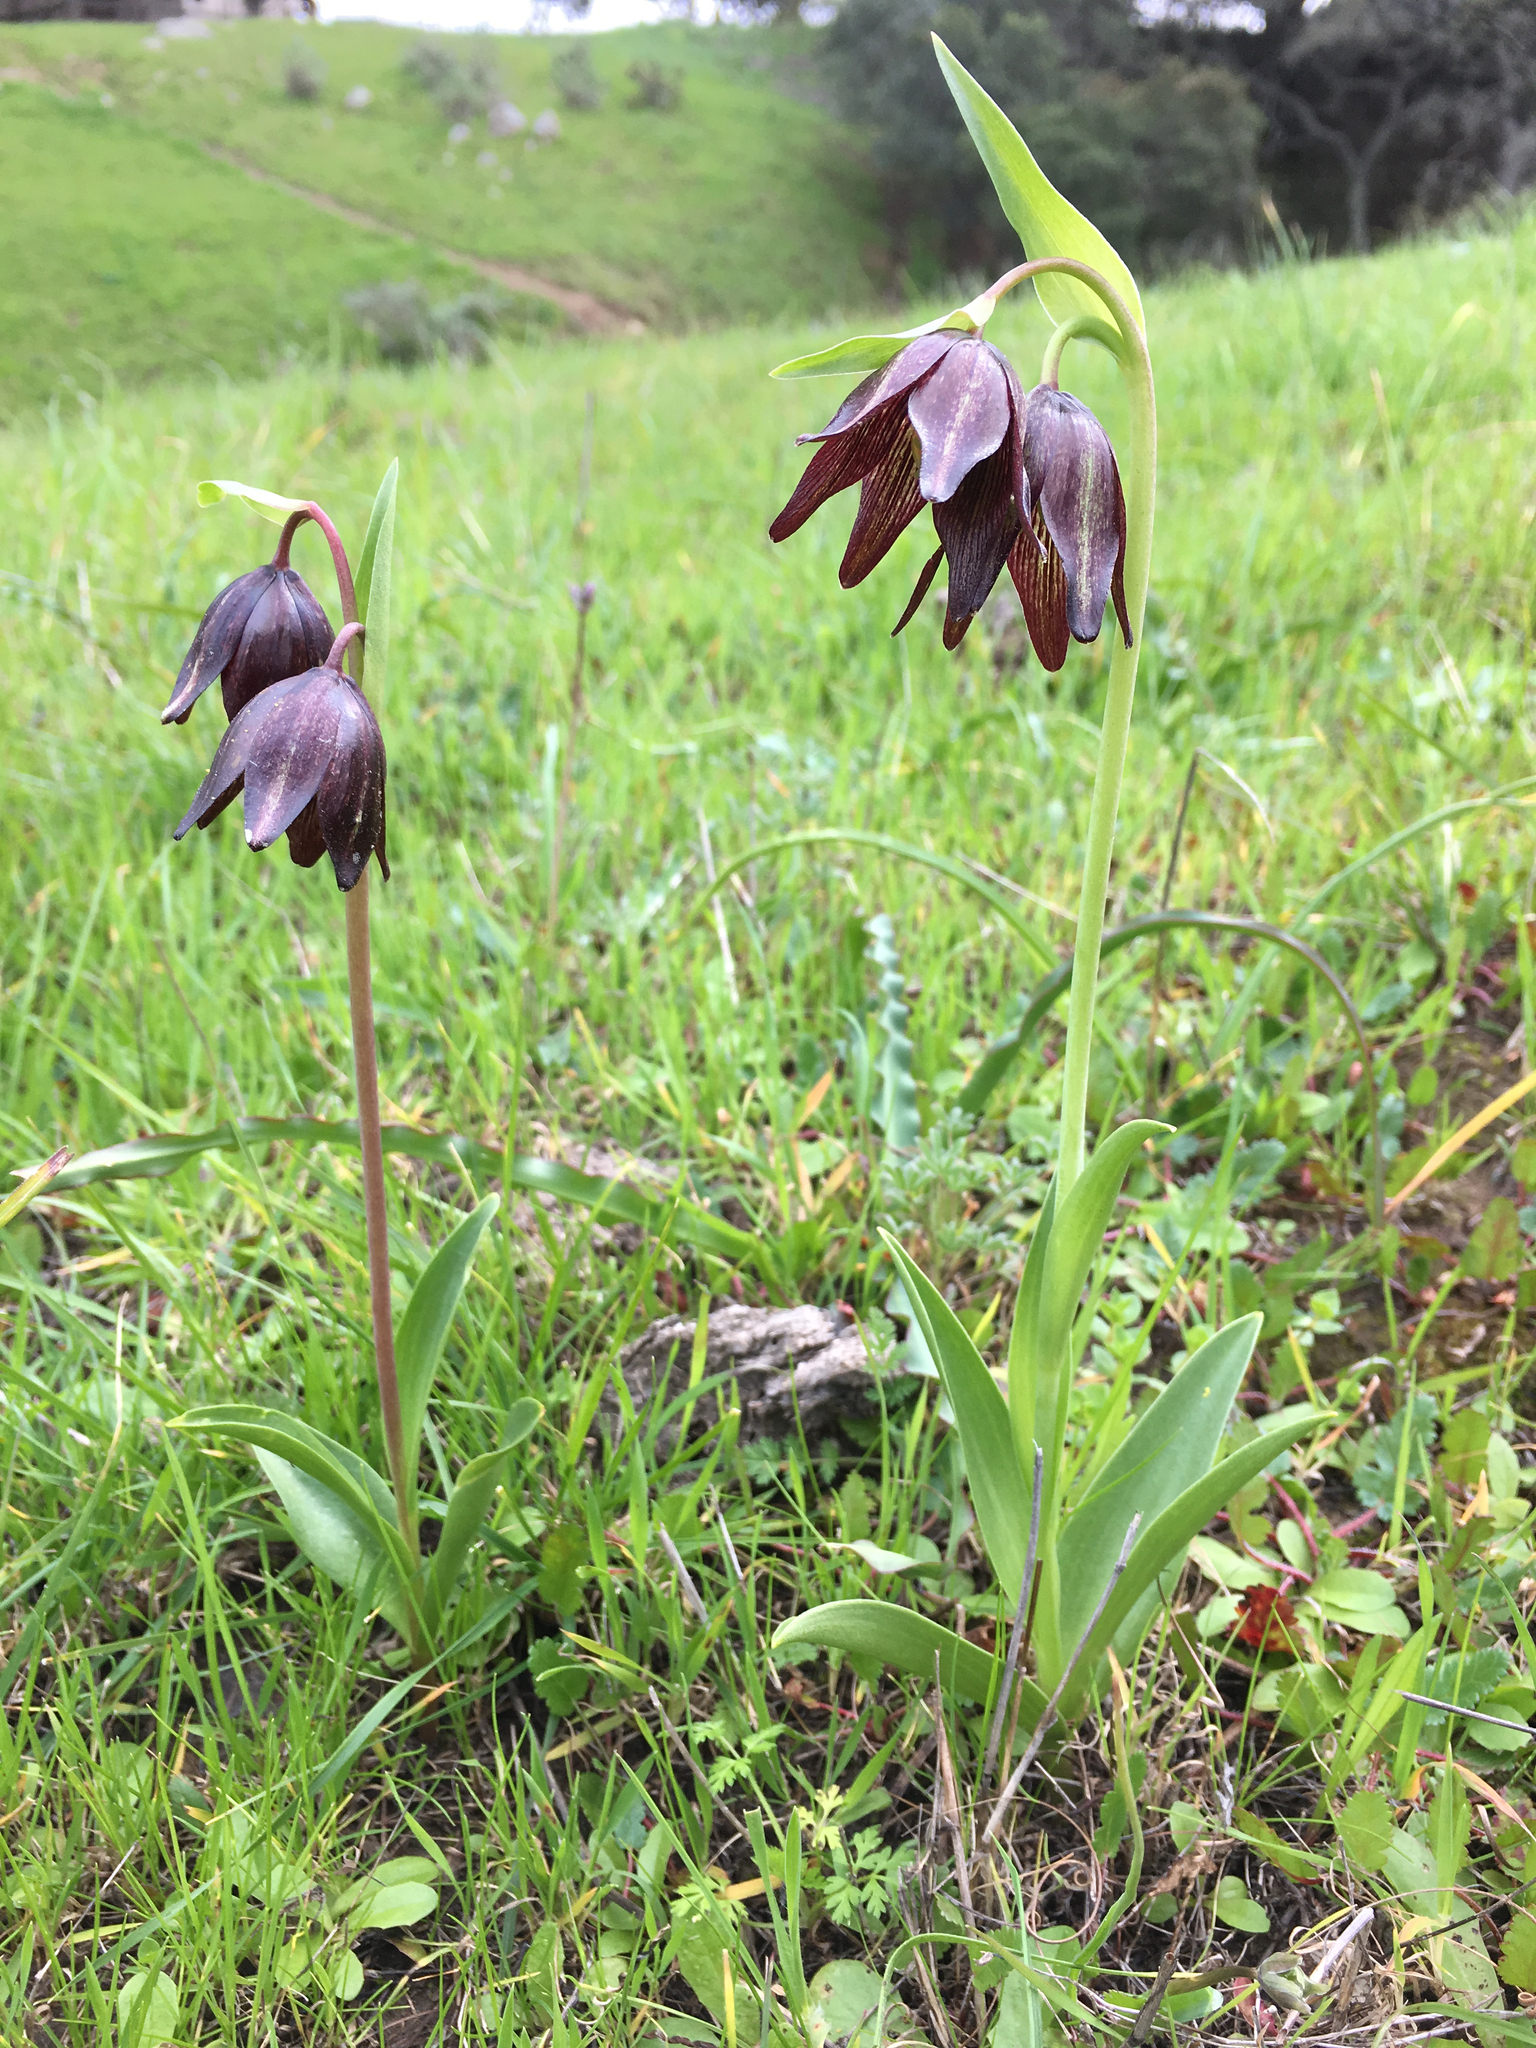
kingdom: Plantae
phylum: Tracheophyta
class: Liliopsida
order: Liliales
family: Liliaceae
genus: Fritillaria
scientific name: Fritillaria biflora
